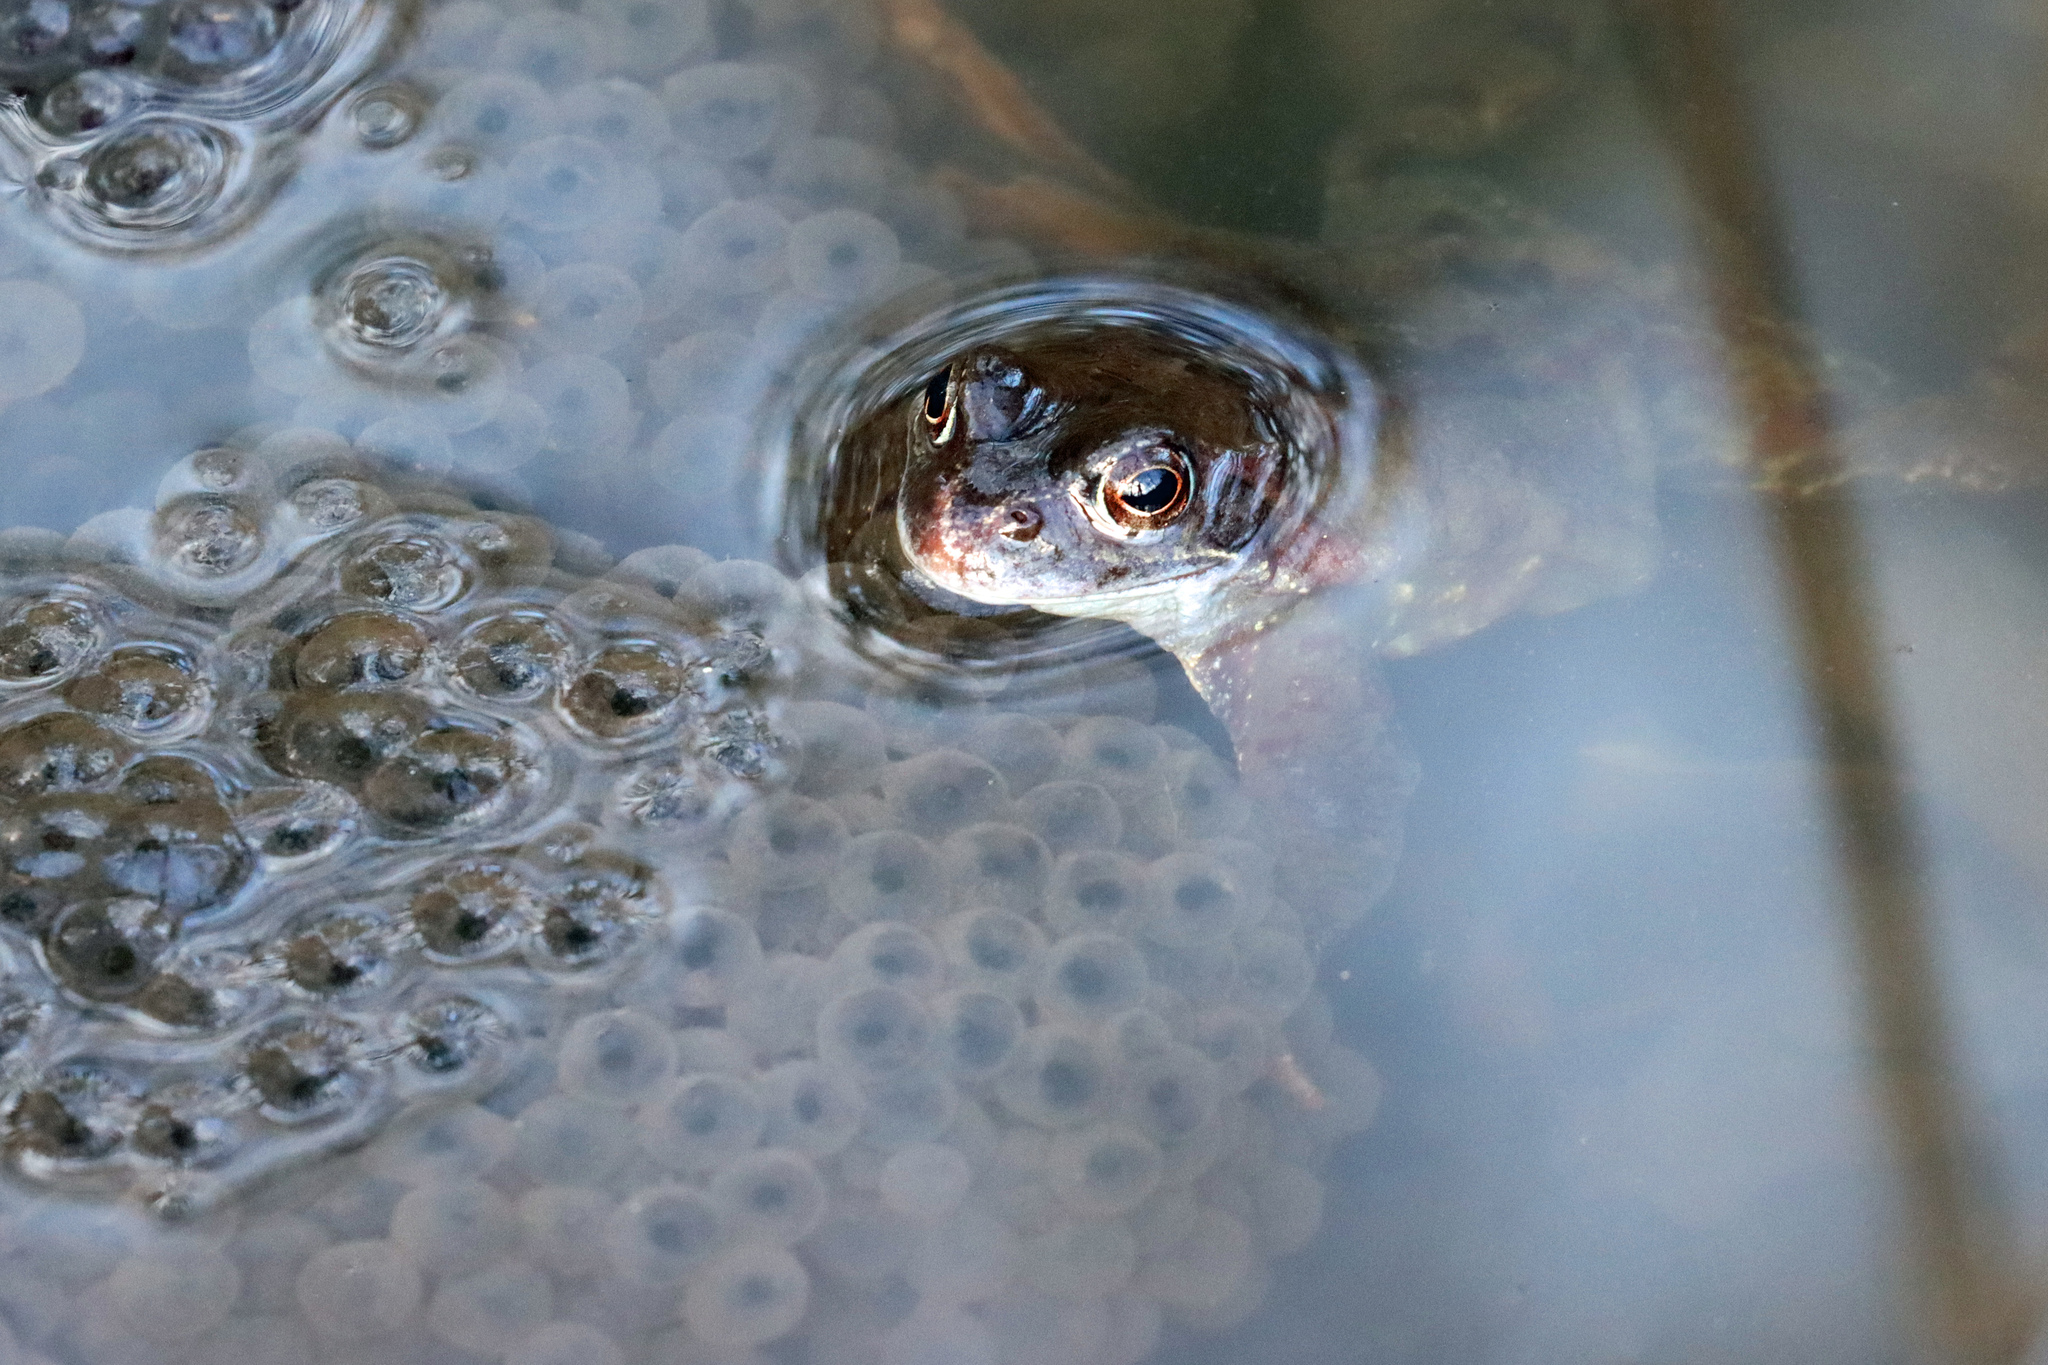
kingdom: Animalia
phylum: Chordata
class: Amphibia
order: Anura
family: Ranidae
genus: Rana
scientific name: Rana temporaria
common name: Common frog
